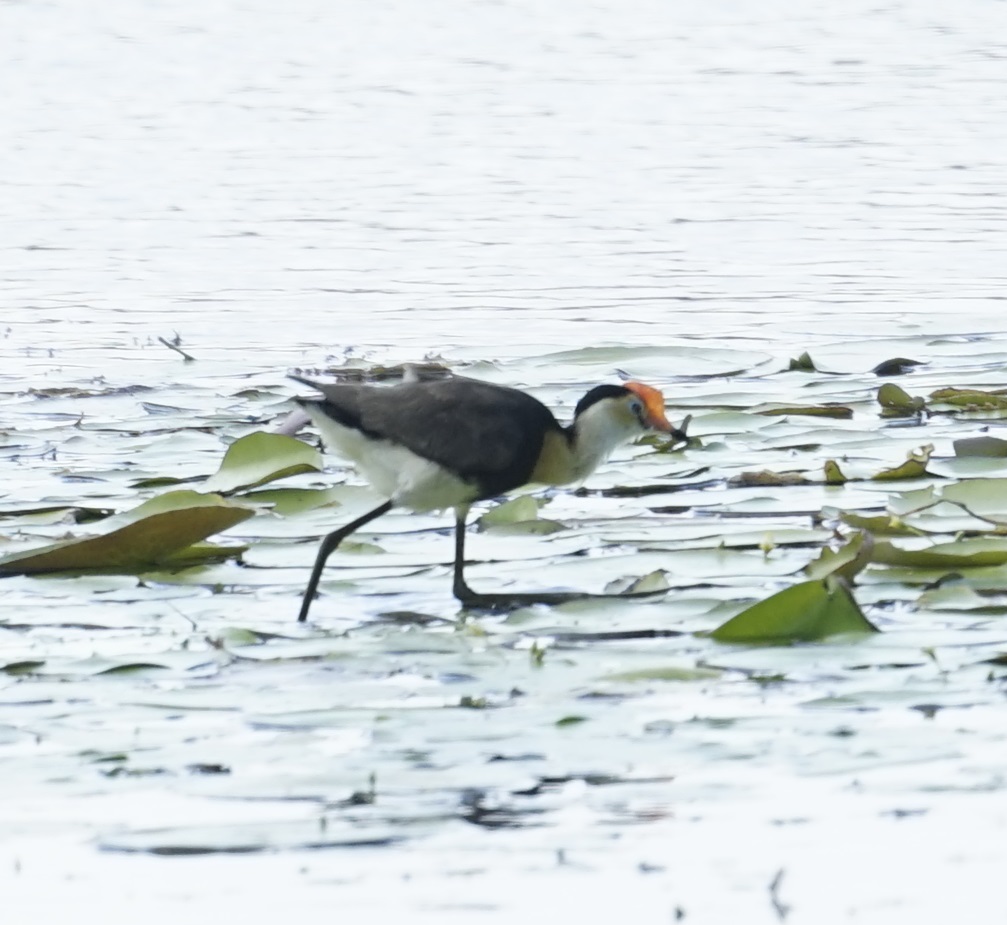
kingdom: Animalia
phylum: Chordata
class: Aves
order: Charadriiformes
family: Jacanidae
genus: Irediparra
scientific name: Irediparra gallinacea
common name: Comb-crested jacana
